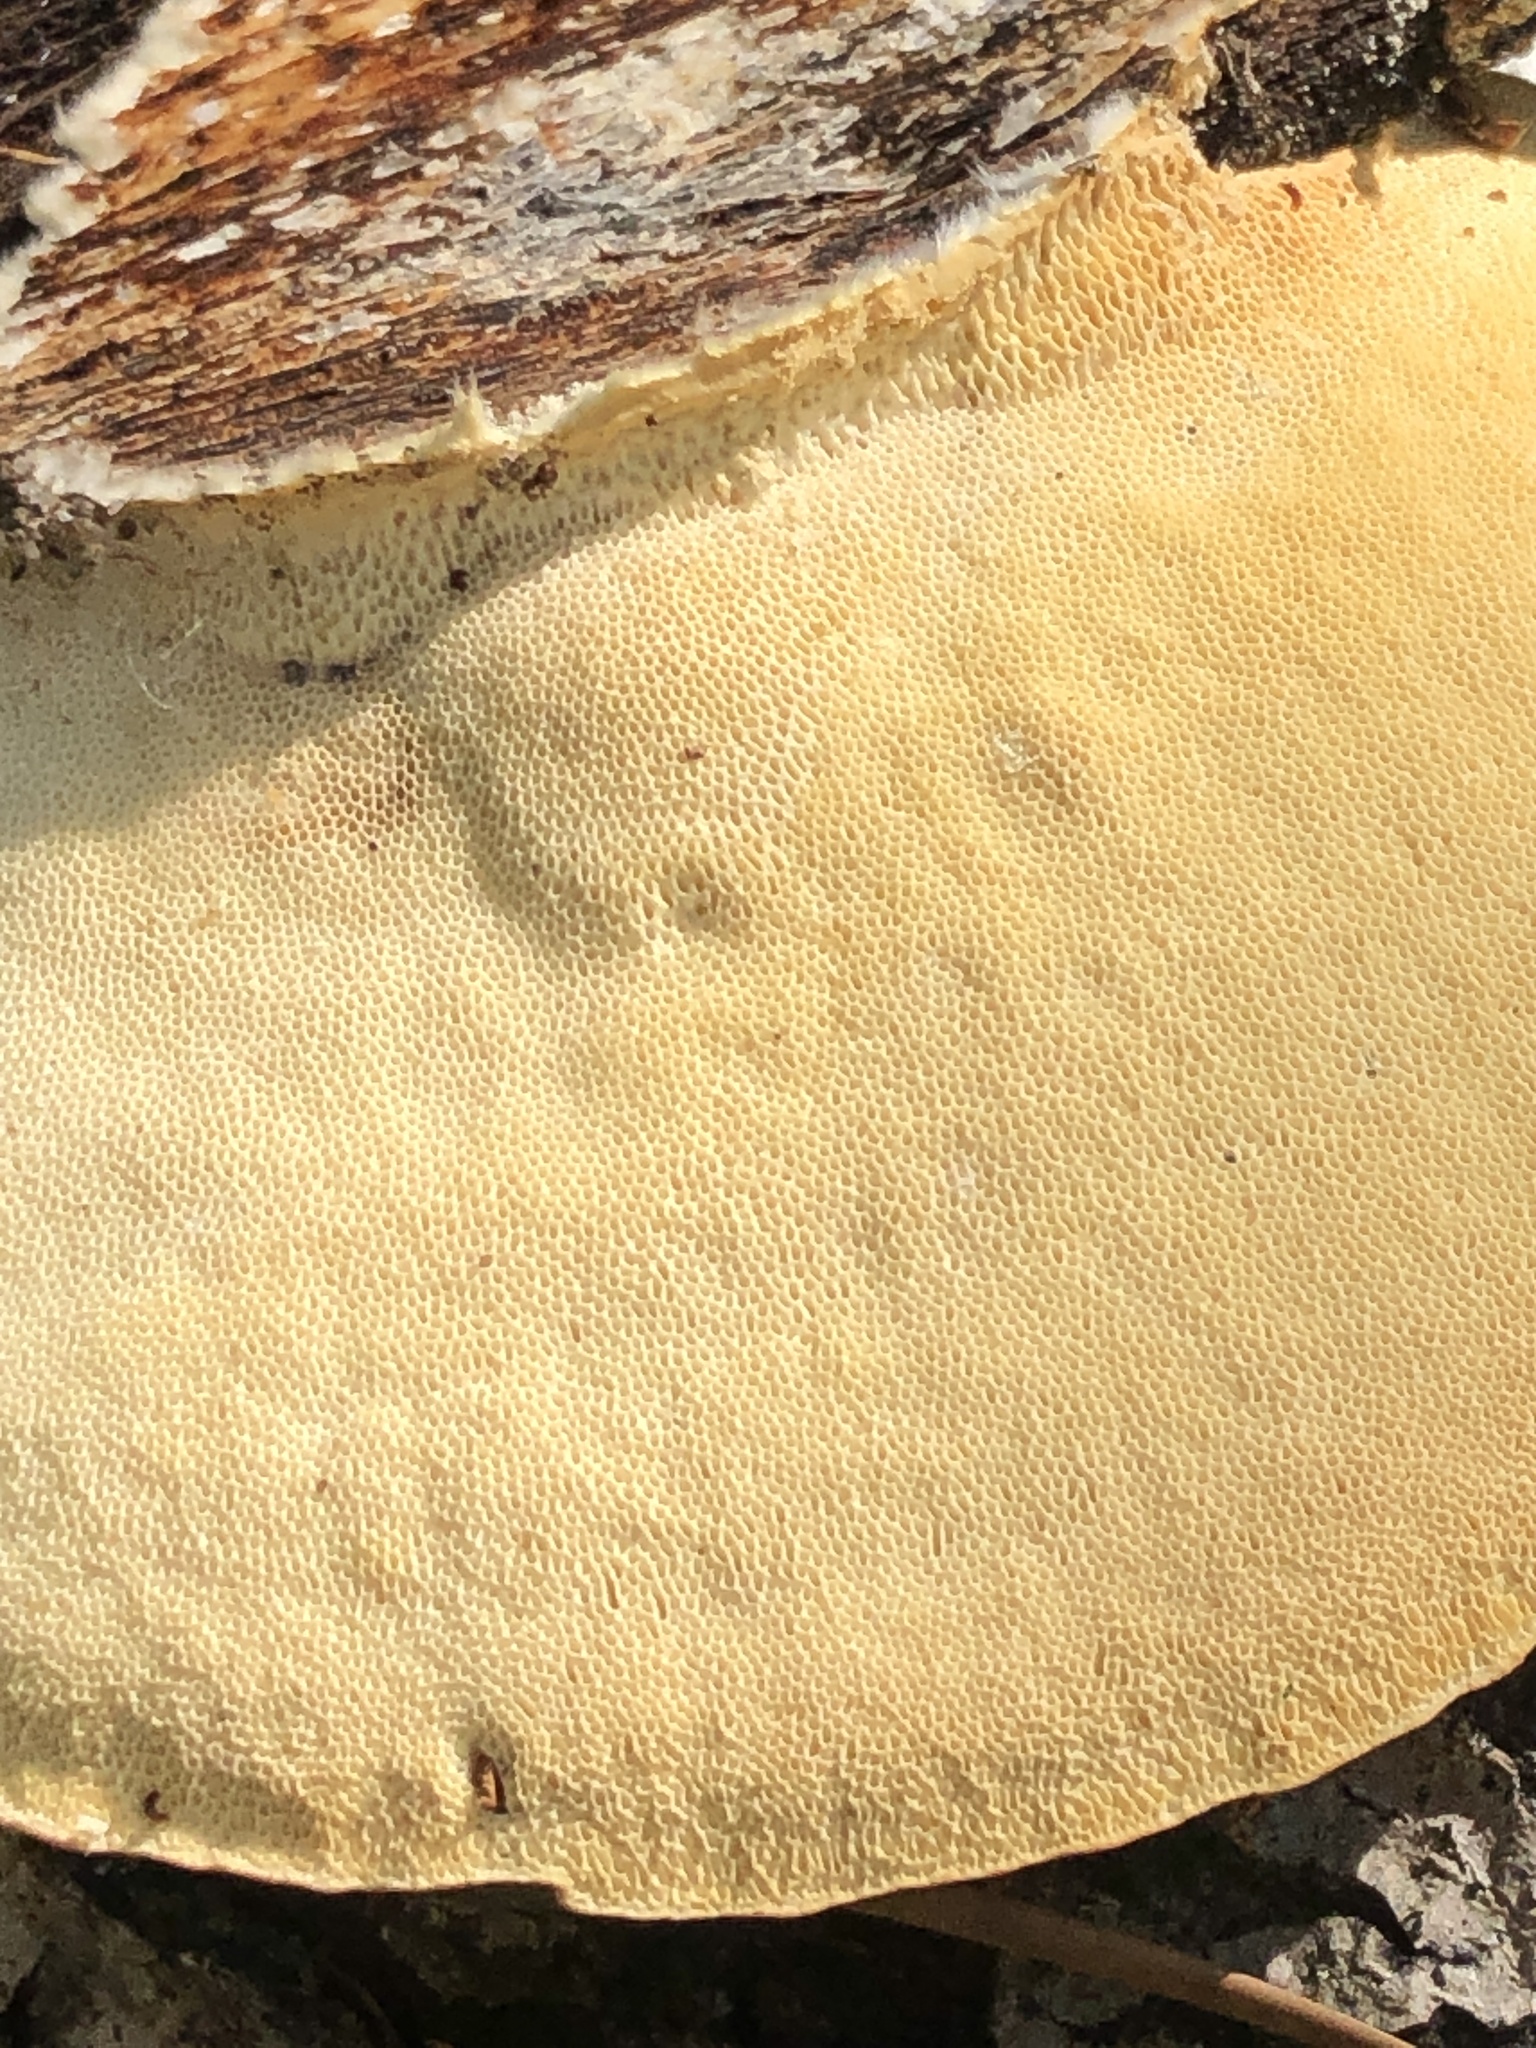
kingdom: Fungi
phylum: Basidiomycota
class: Agaricomycetes
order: Polyporales
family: Polyporaceae
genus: Trametes
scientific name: Trametes lactinea
